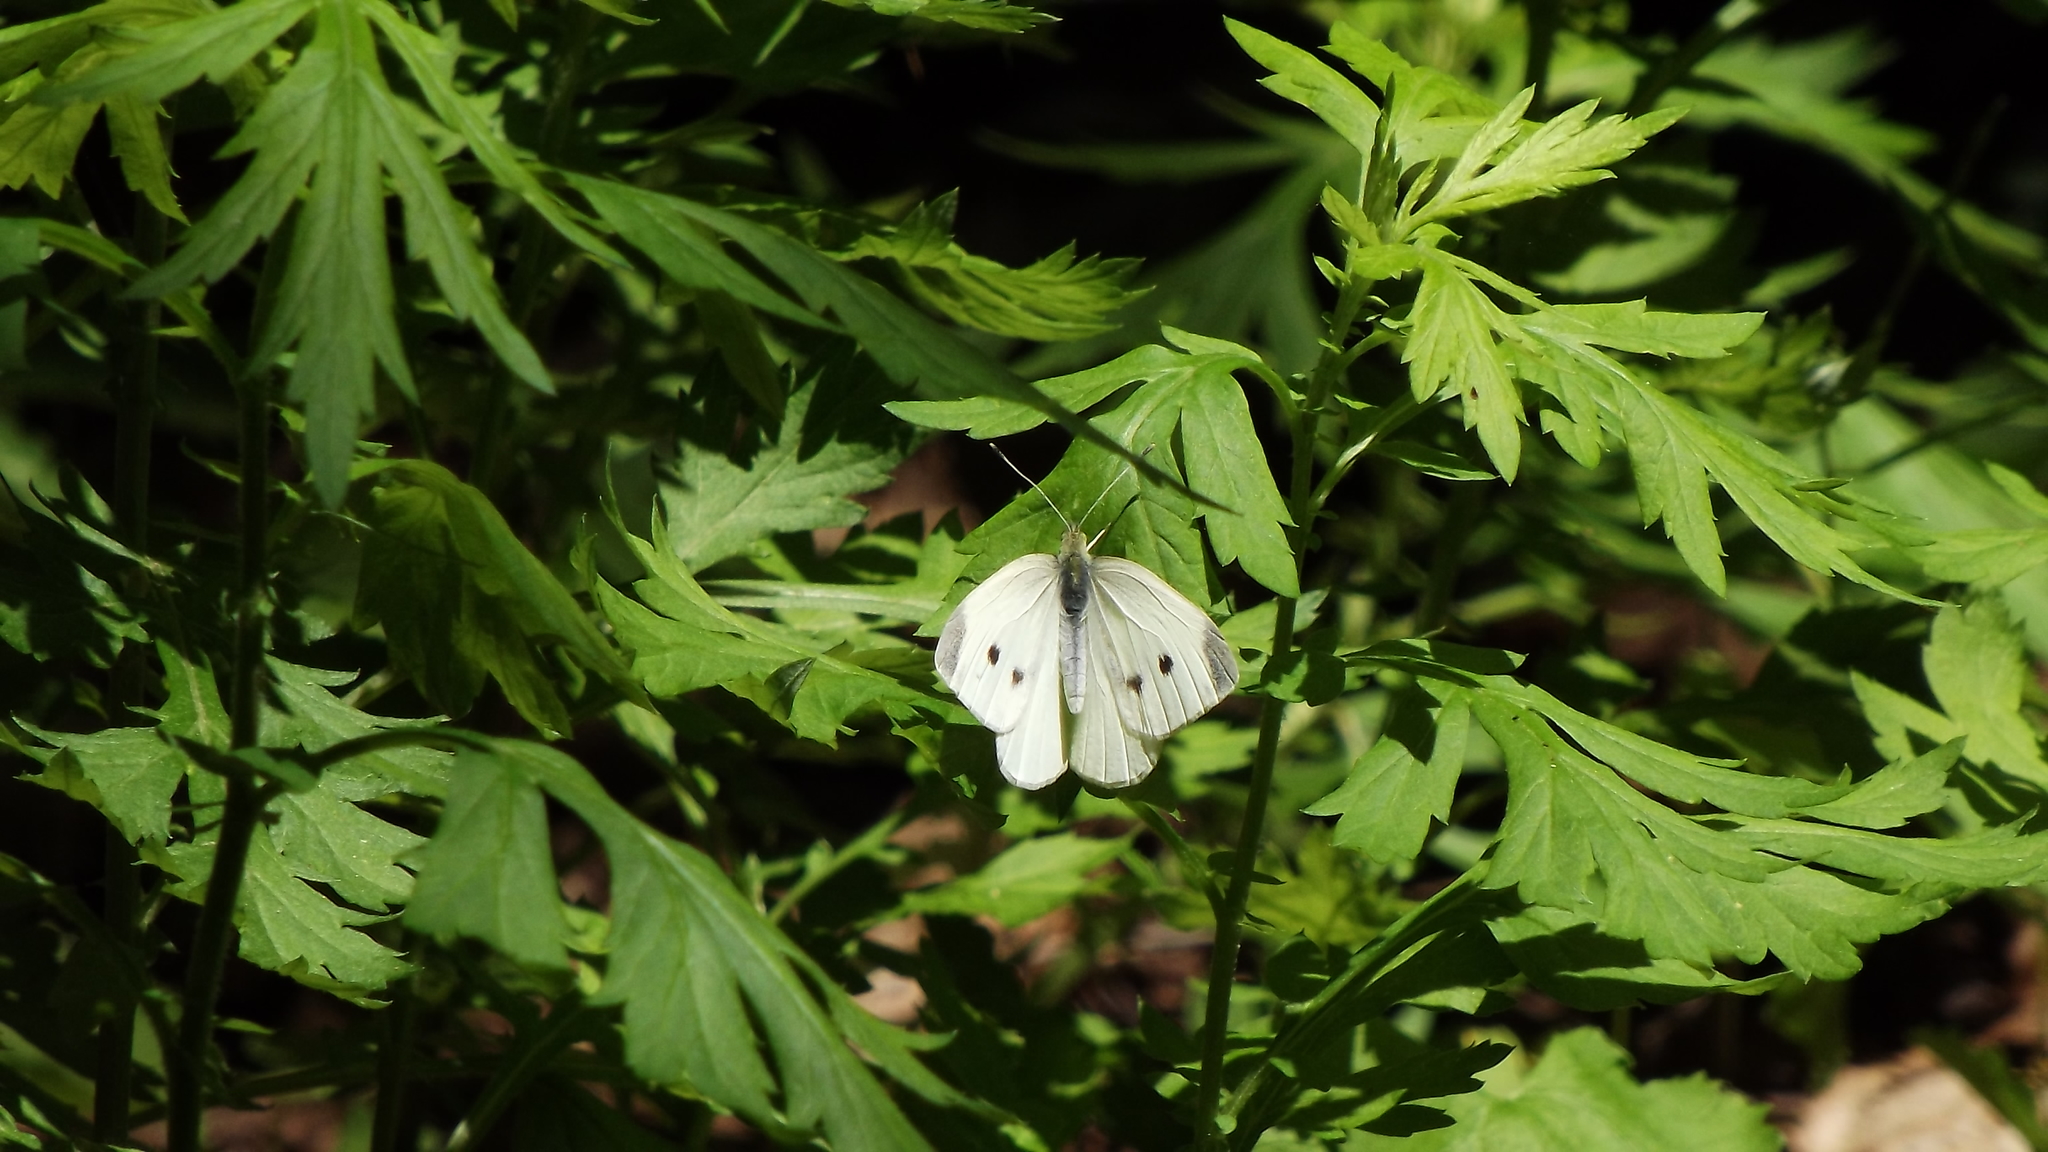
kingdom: Animalia
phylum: Arthropoda
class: Insecta
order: Lepidoptera
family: Pieridae
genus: Pieris
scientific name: Pieris rapae
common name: Small white
